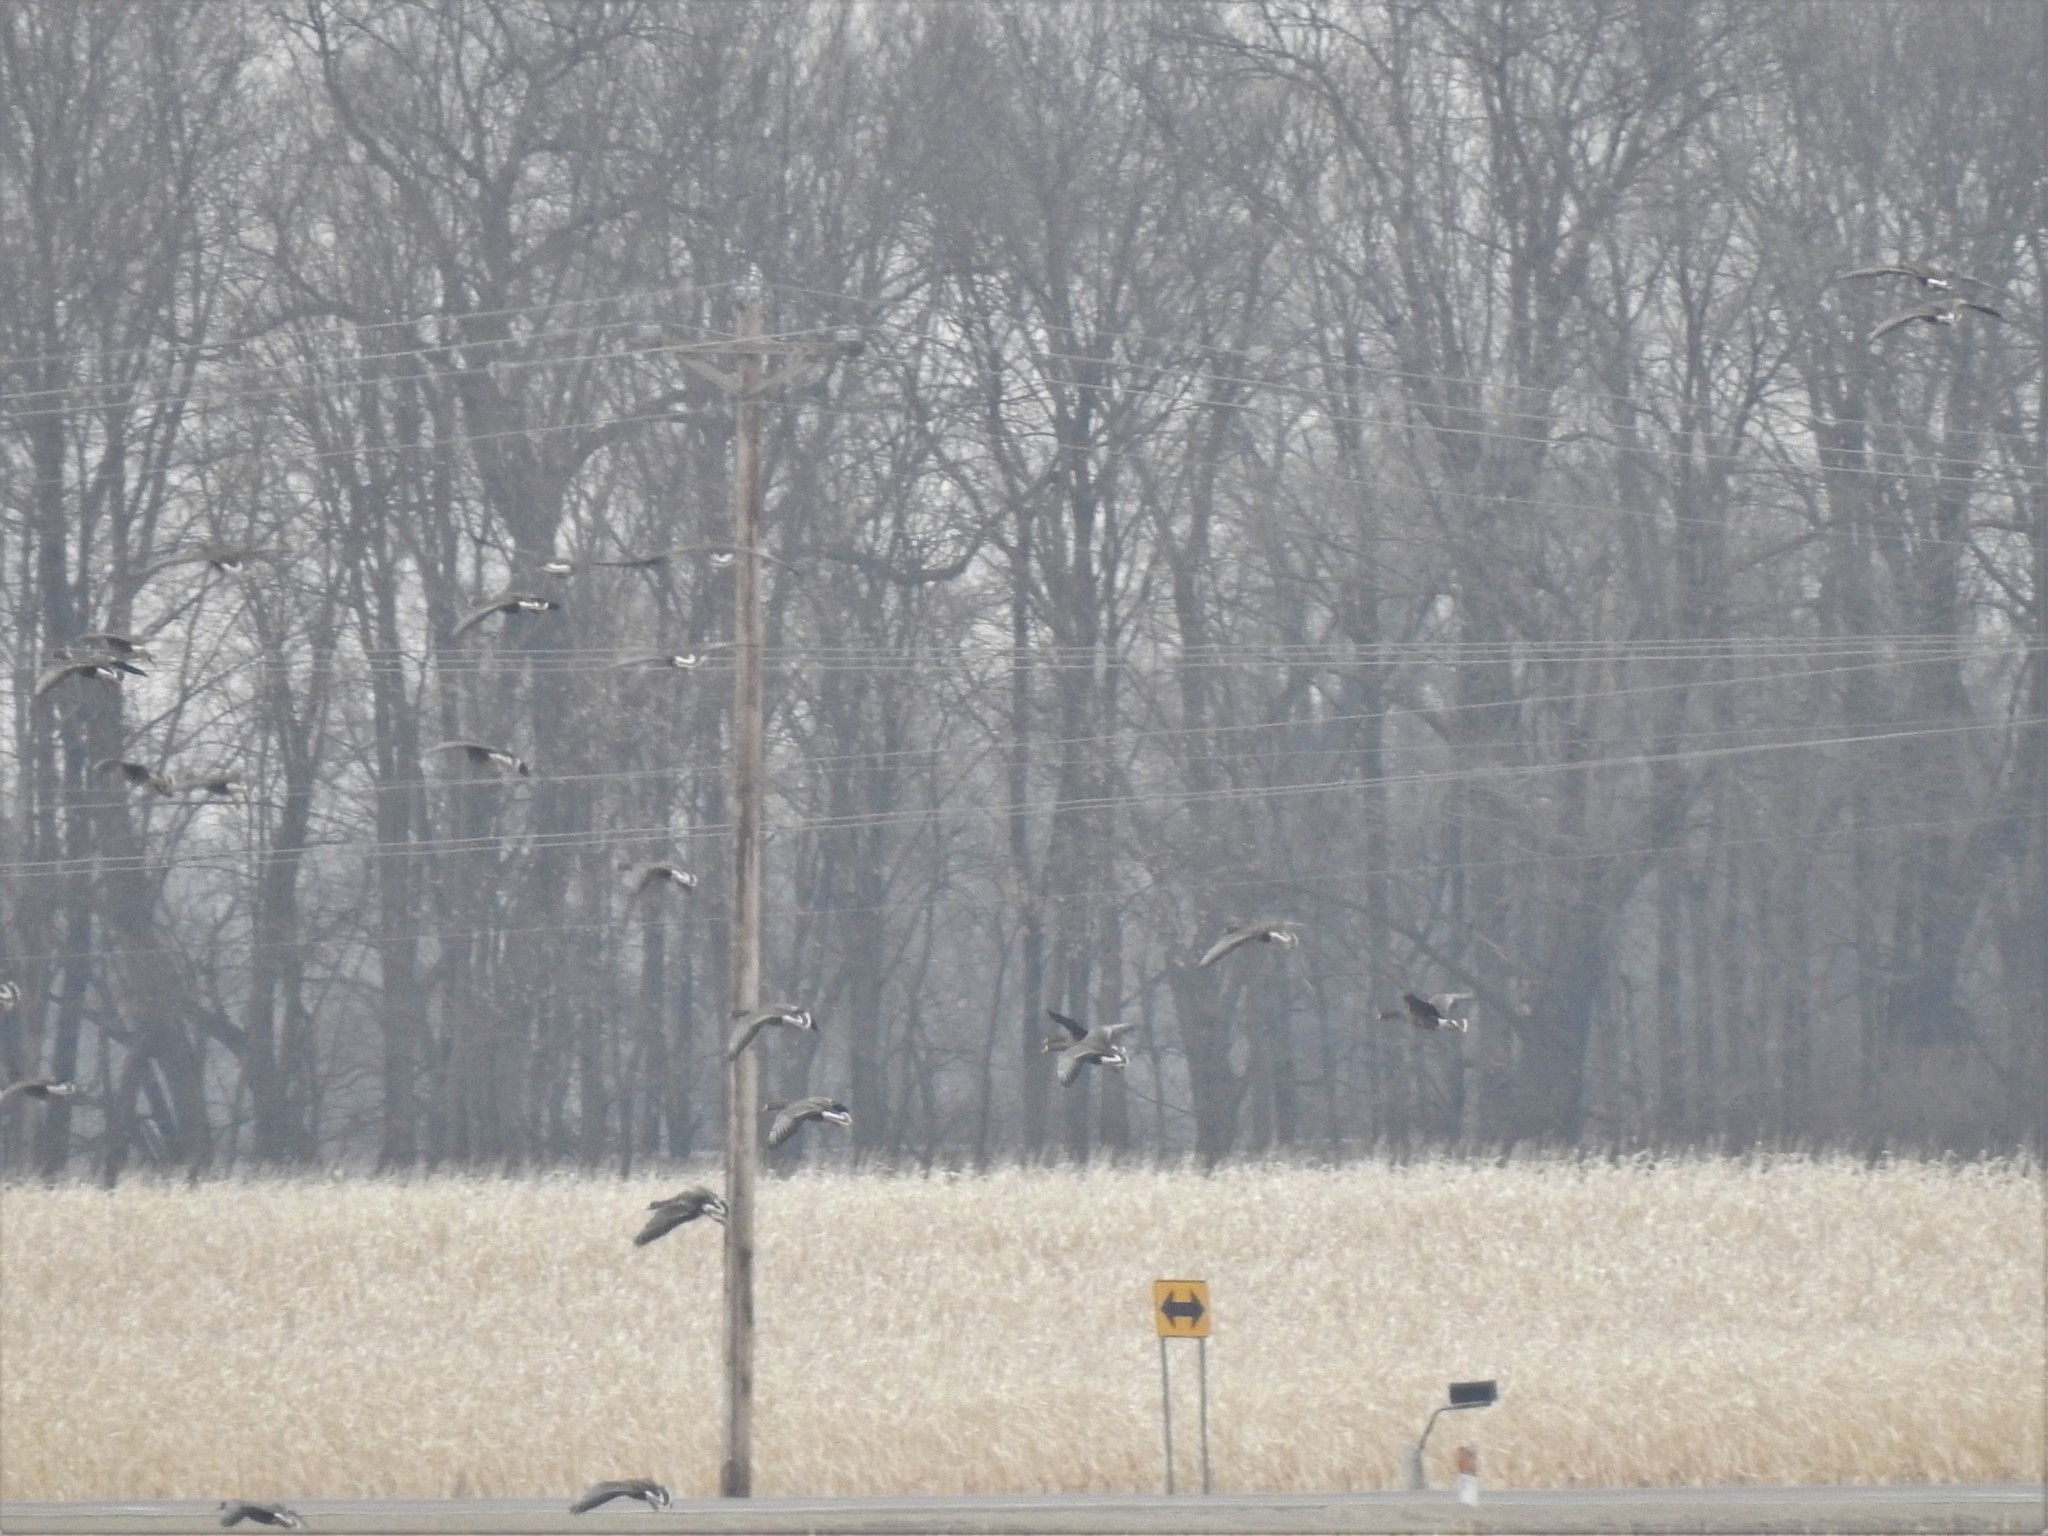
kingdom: Animalia
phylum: Chordata
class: Aves
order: Anseriformes
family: Anatidae
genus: Anser
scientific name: Anser albifrons
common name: Greater white-fronted goose
